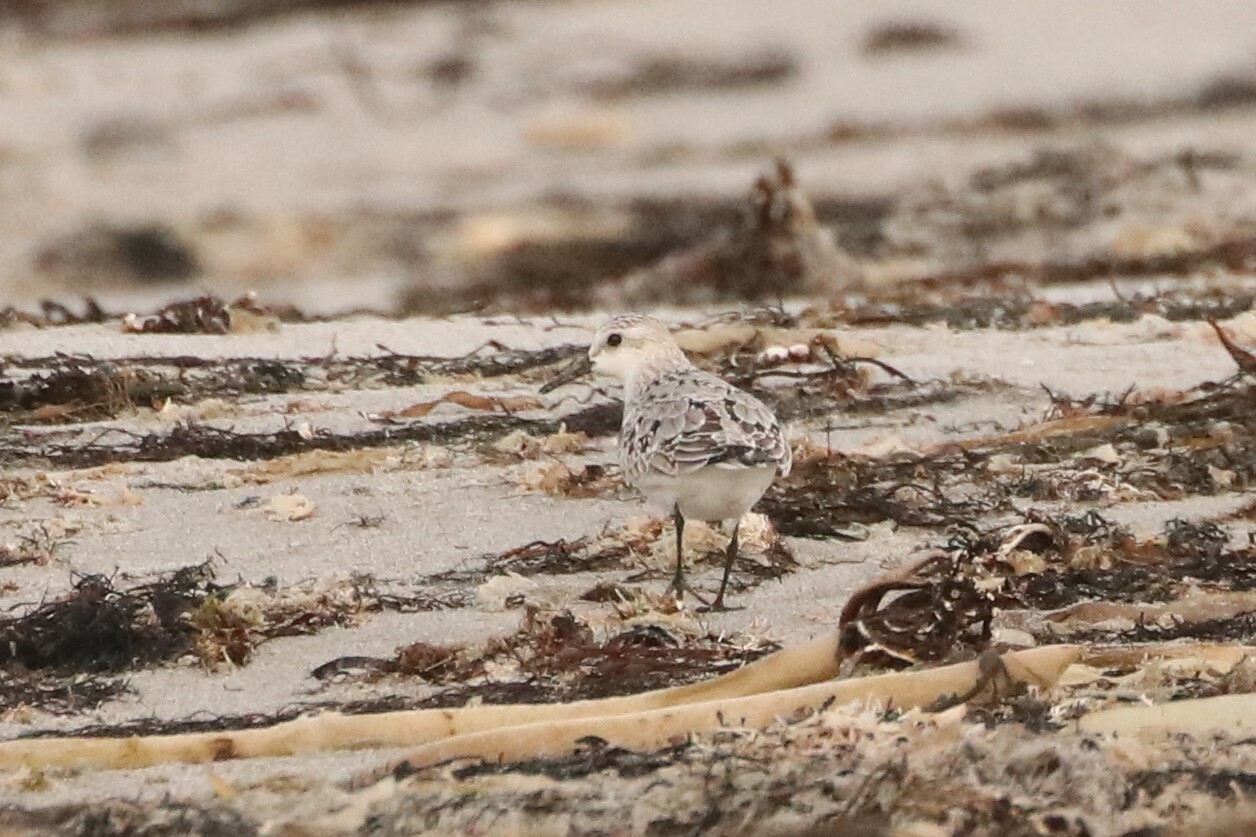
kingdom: Animalia
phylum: Chordata
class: Aves
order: Charadriiformes
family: Scolopacidae
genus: Calidris
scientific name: Calidris alba
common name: Sanderling
